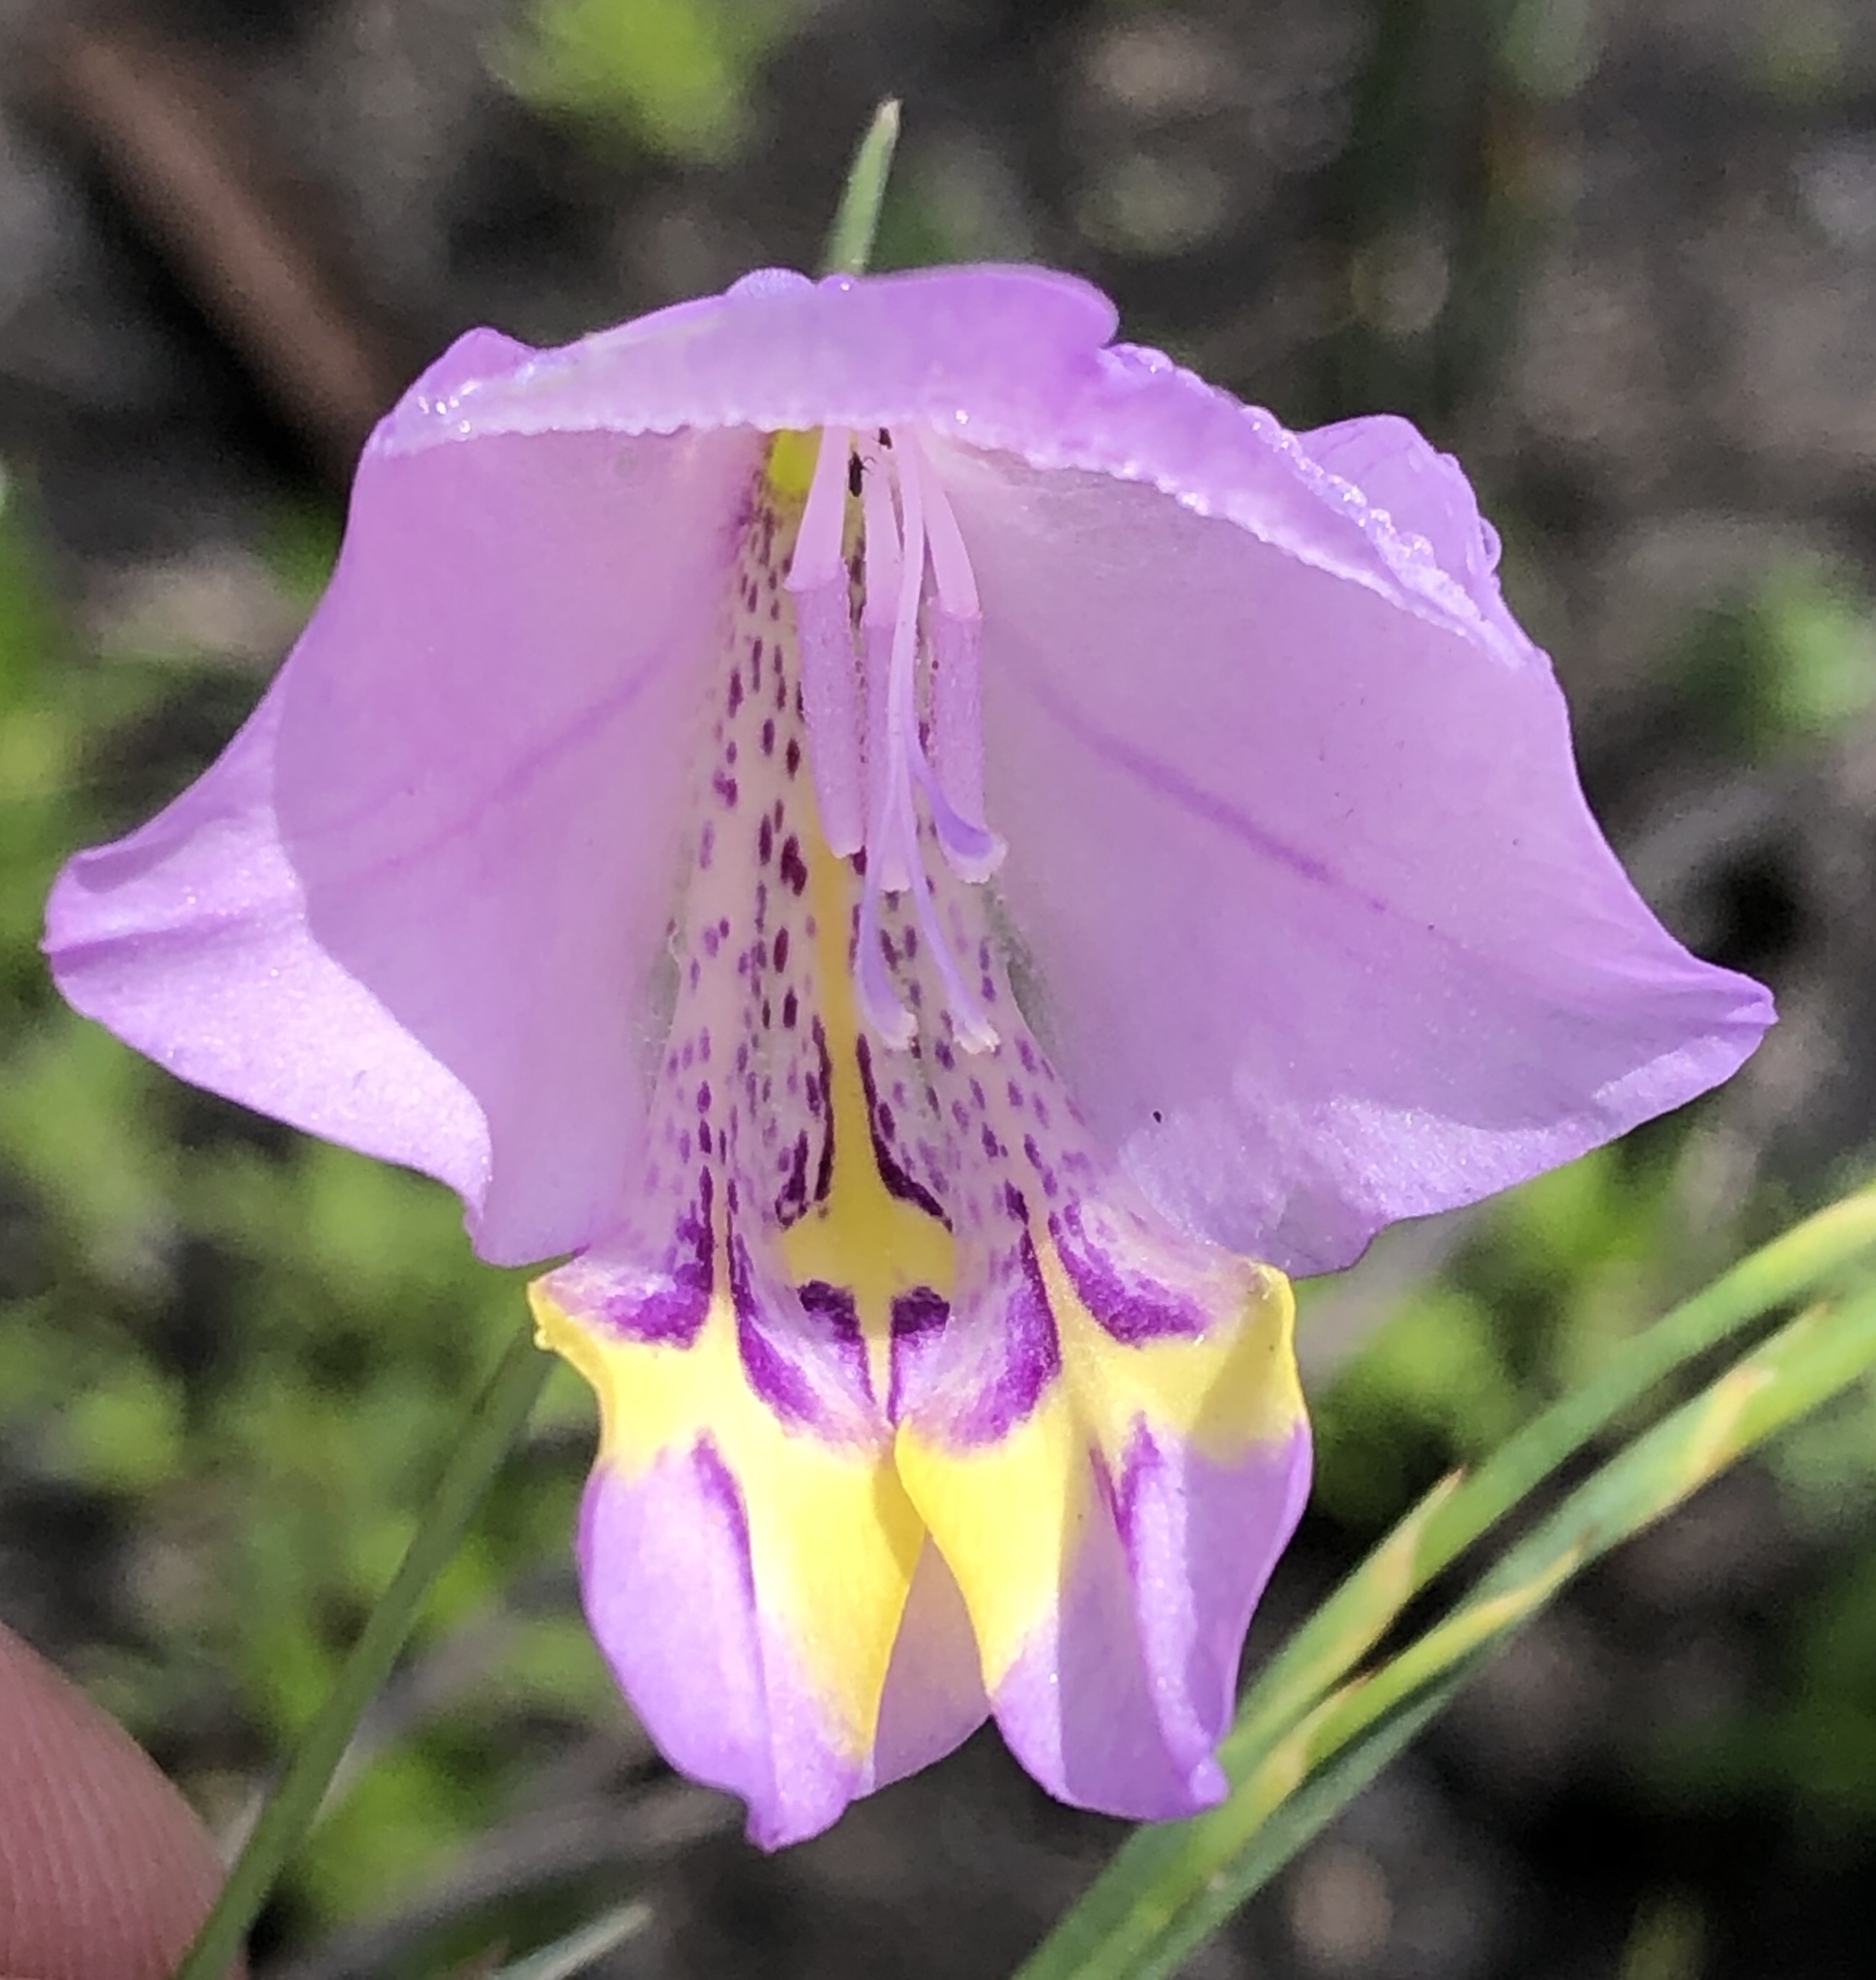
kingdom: Plantae
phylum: Tracheophyta
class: Liliopsida
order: Asparagales
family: Iridaceae
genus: Gladiolus
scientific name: Gladiolus rogersii
